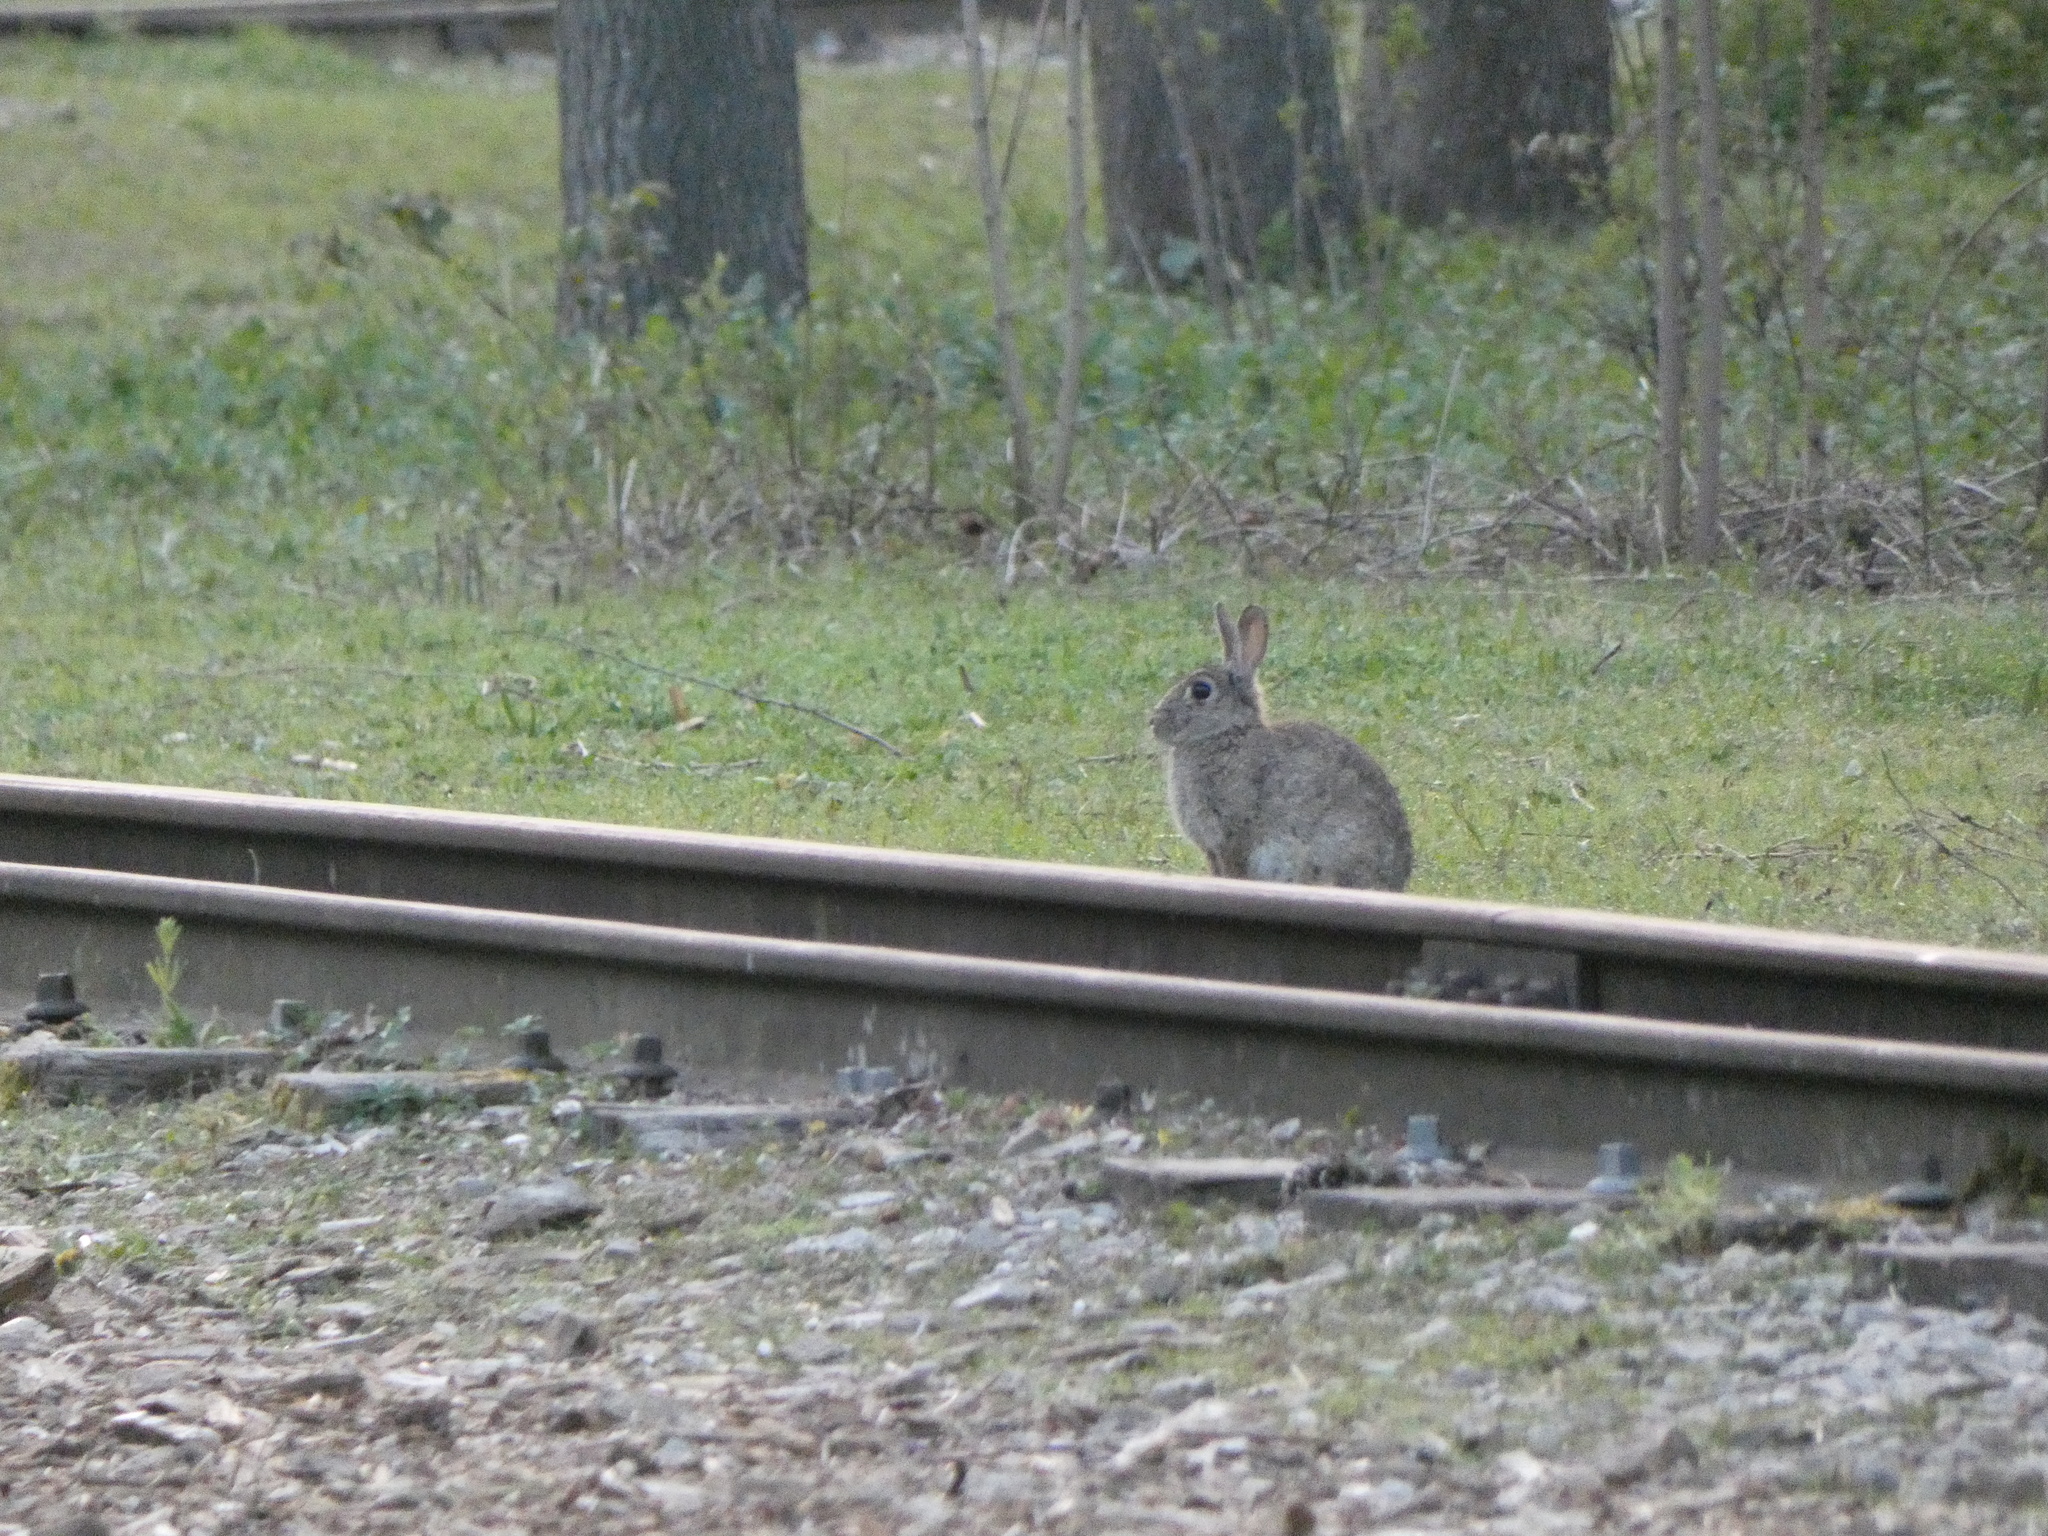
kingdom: Animalia
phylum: Chordata
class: Mammalia
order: Lagomorpha
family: Leporidae
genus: Oryctolagus
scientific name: Oryctolagus cuniculus
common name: European rabbit
